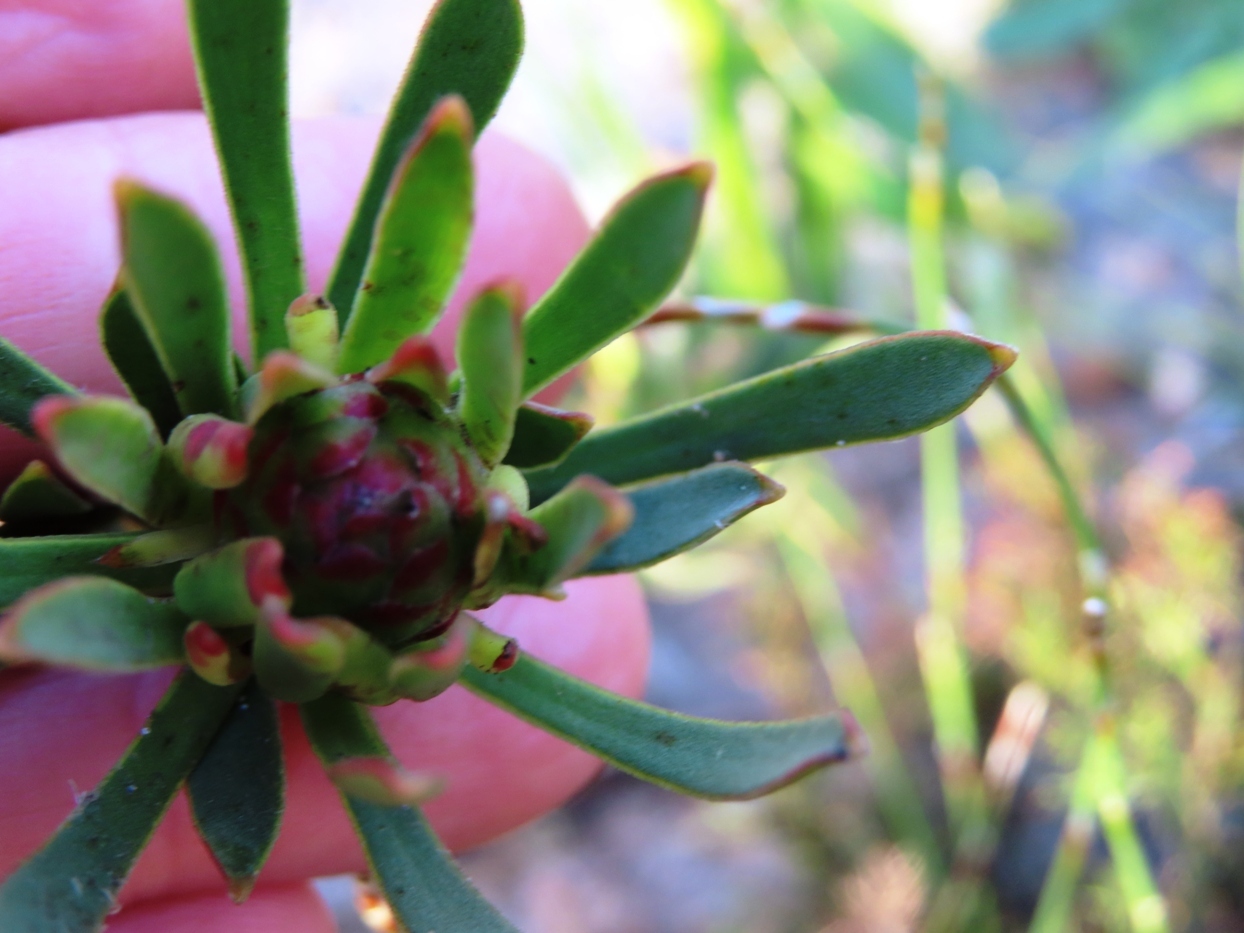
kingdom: Plantae
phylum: Tracheophyta
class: Magnoliopsida
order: Proteales
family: Proteaceae
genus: Leucadendron
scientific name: Leucadendron modestum
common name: Rough-leaf conebush
